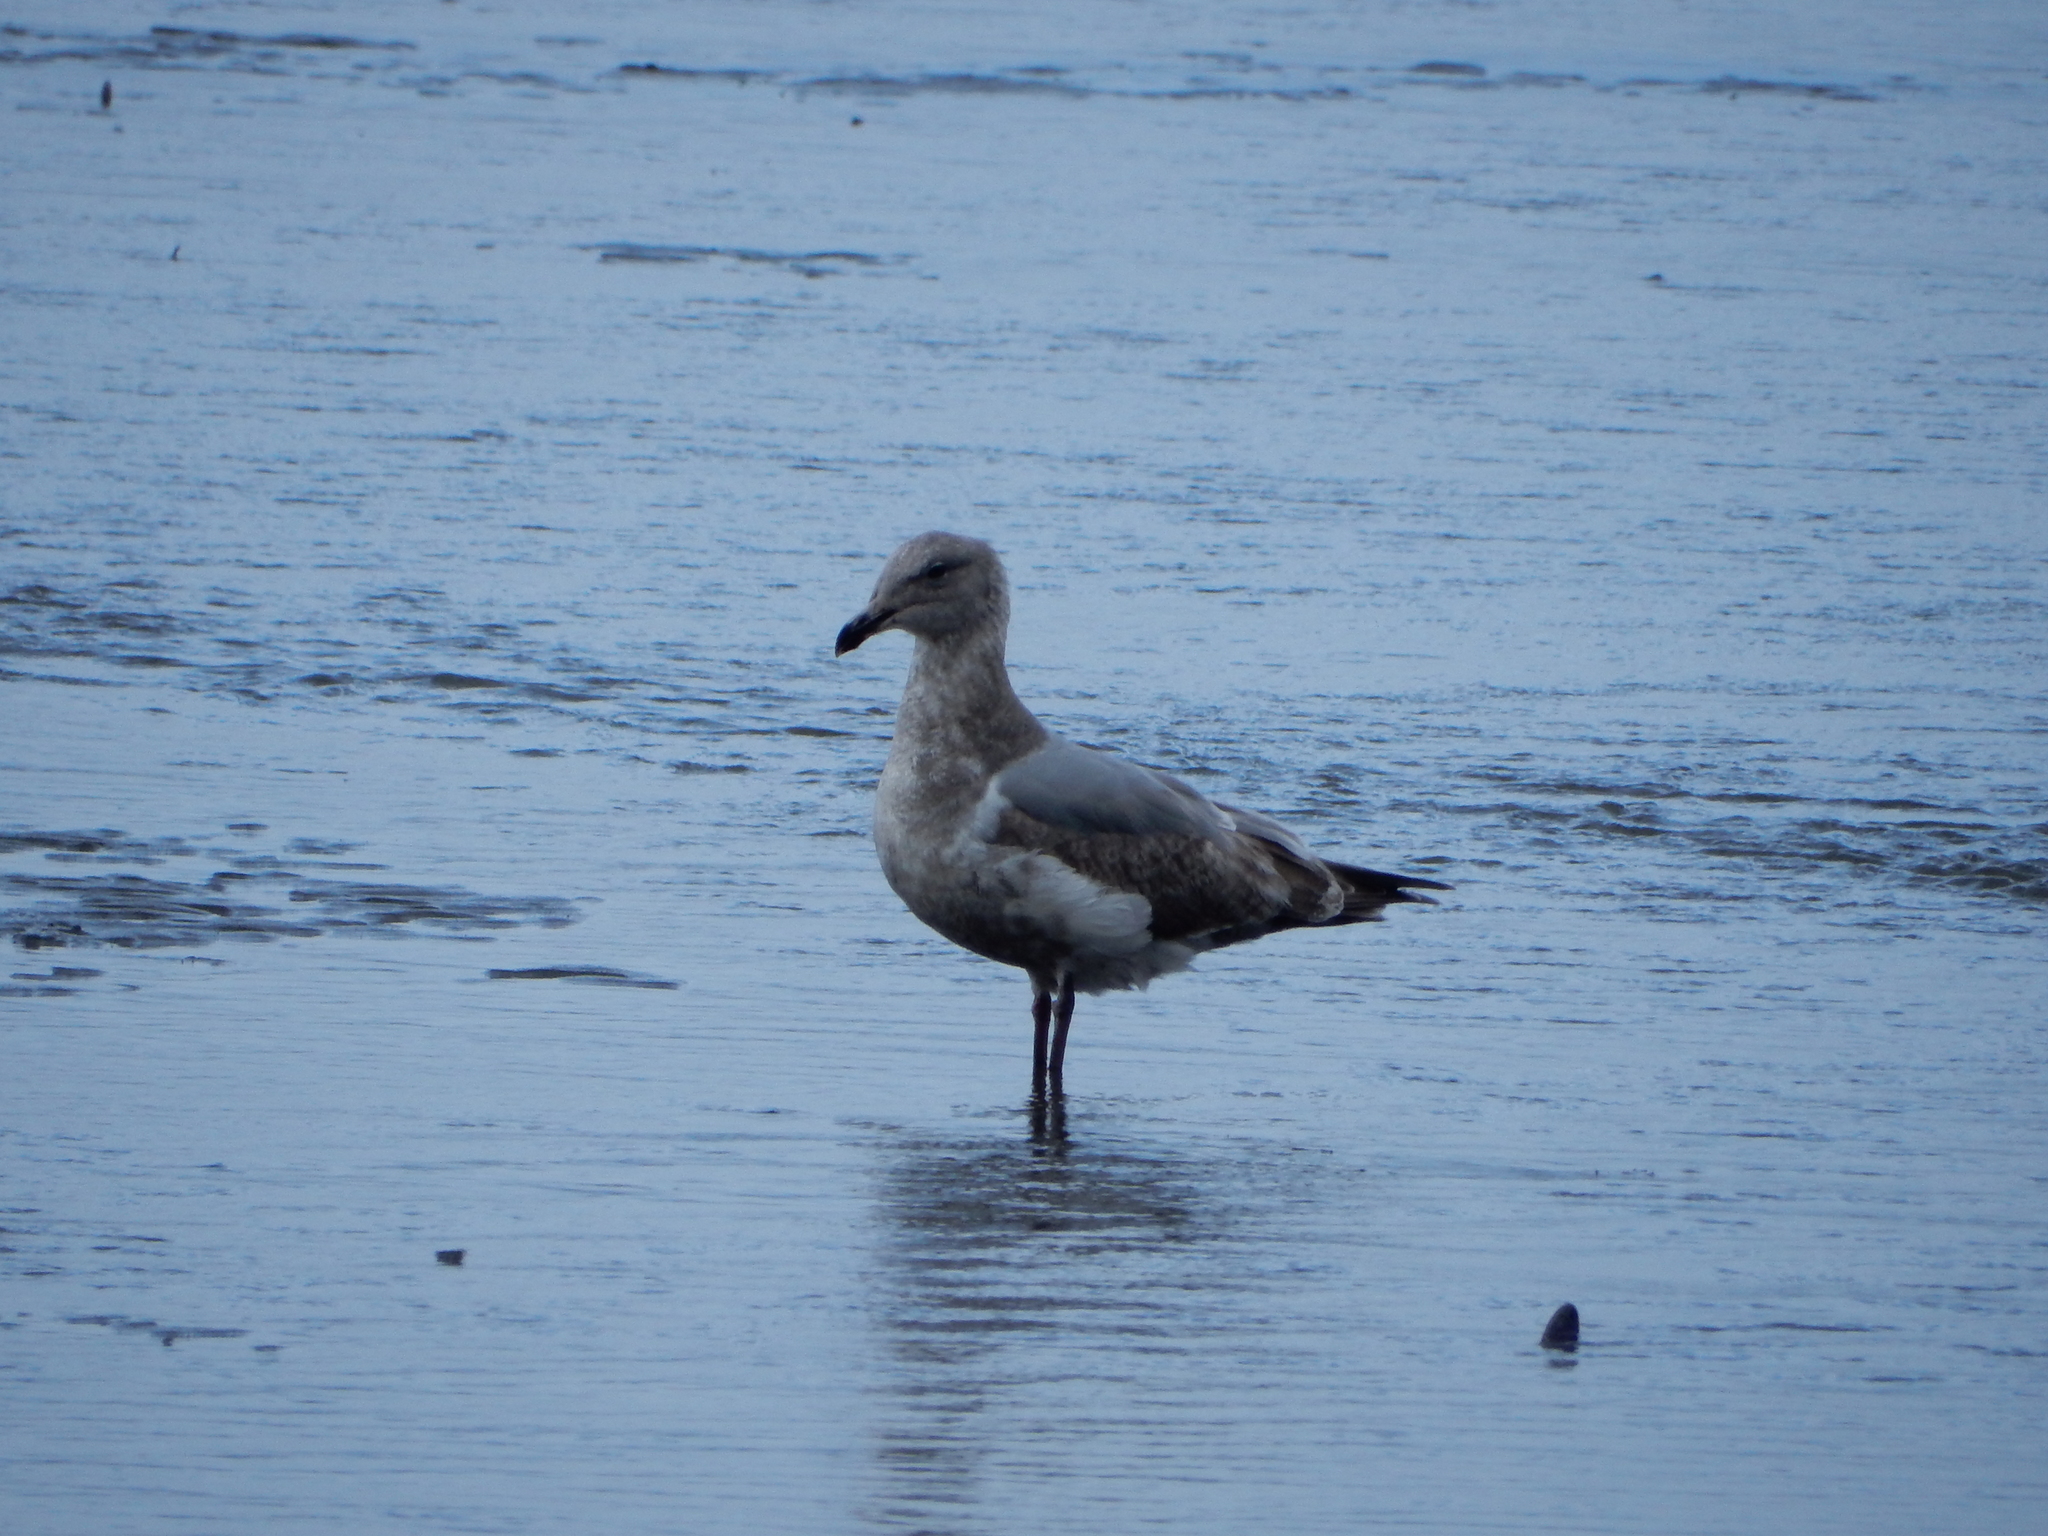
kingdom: Animalia
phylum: Chordata
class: Aves
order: Charadriiformes
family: Laridae
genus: Larus
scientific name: Larus
